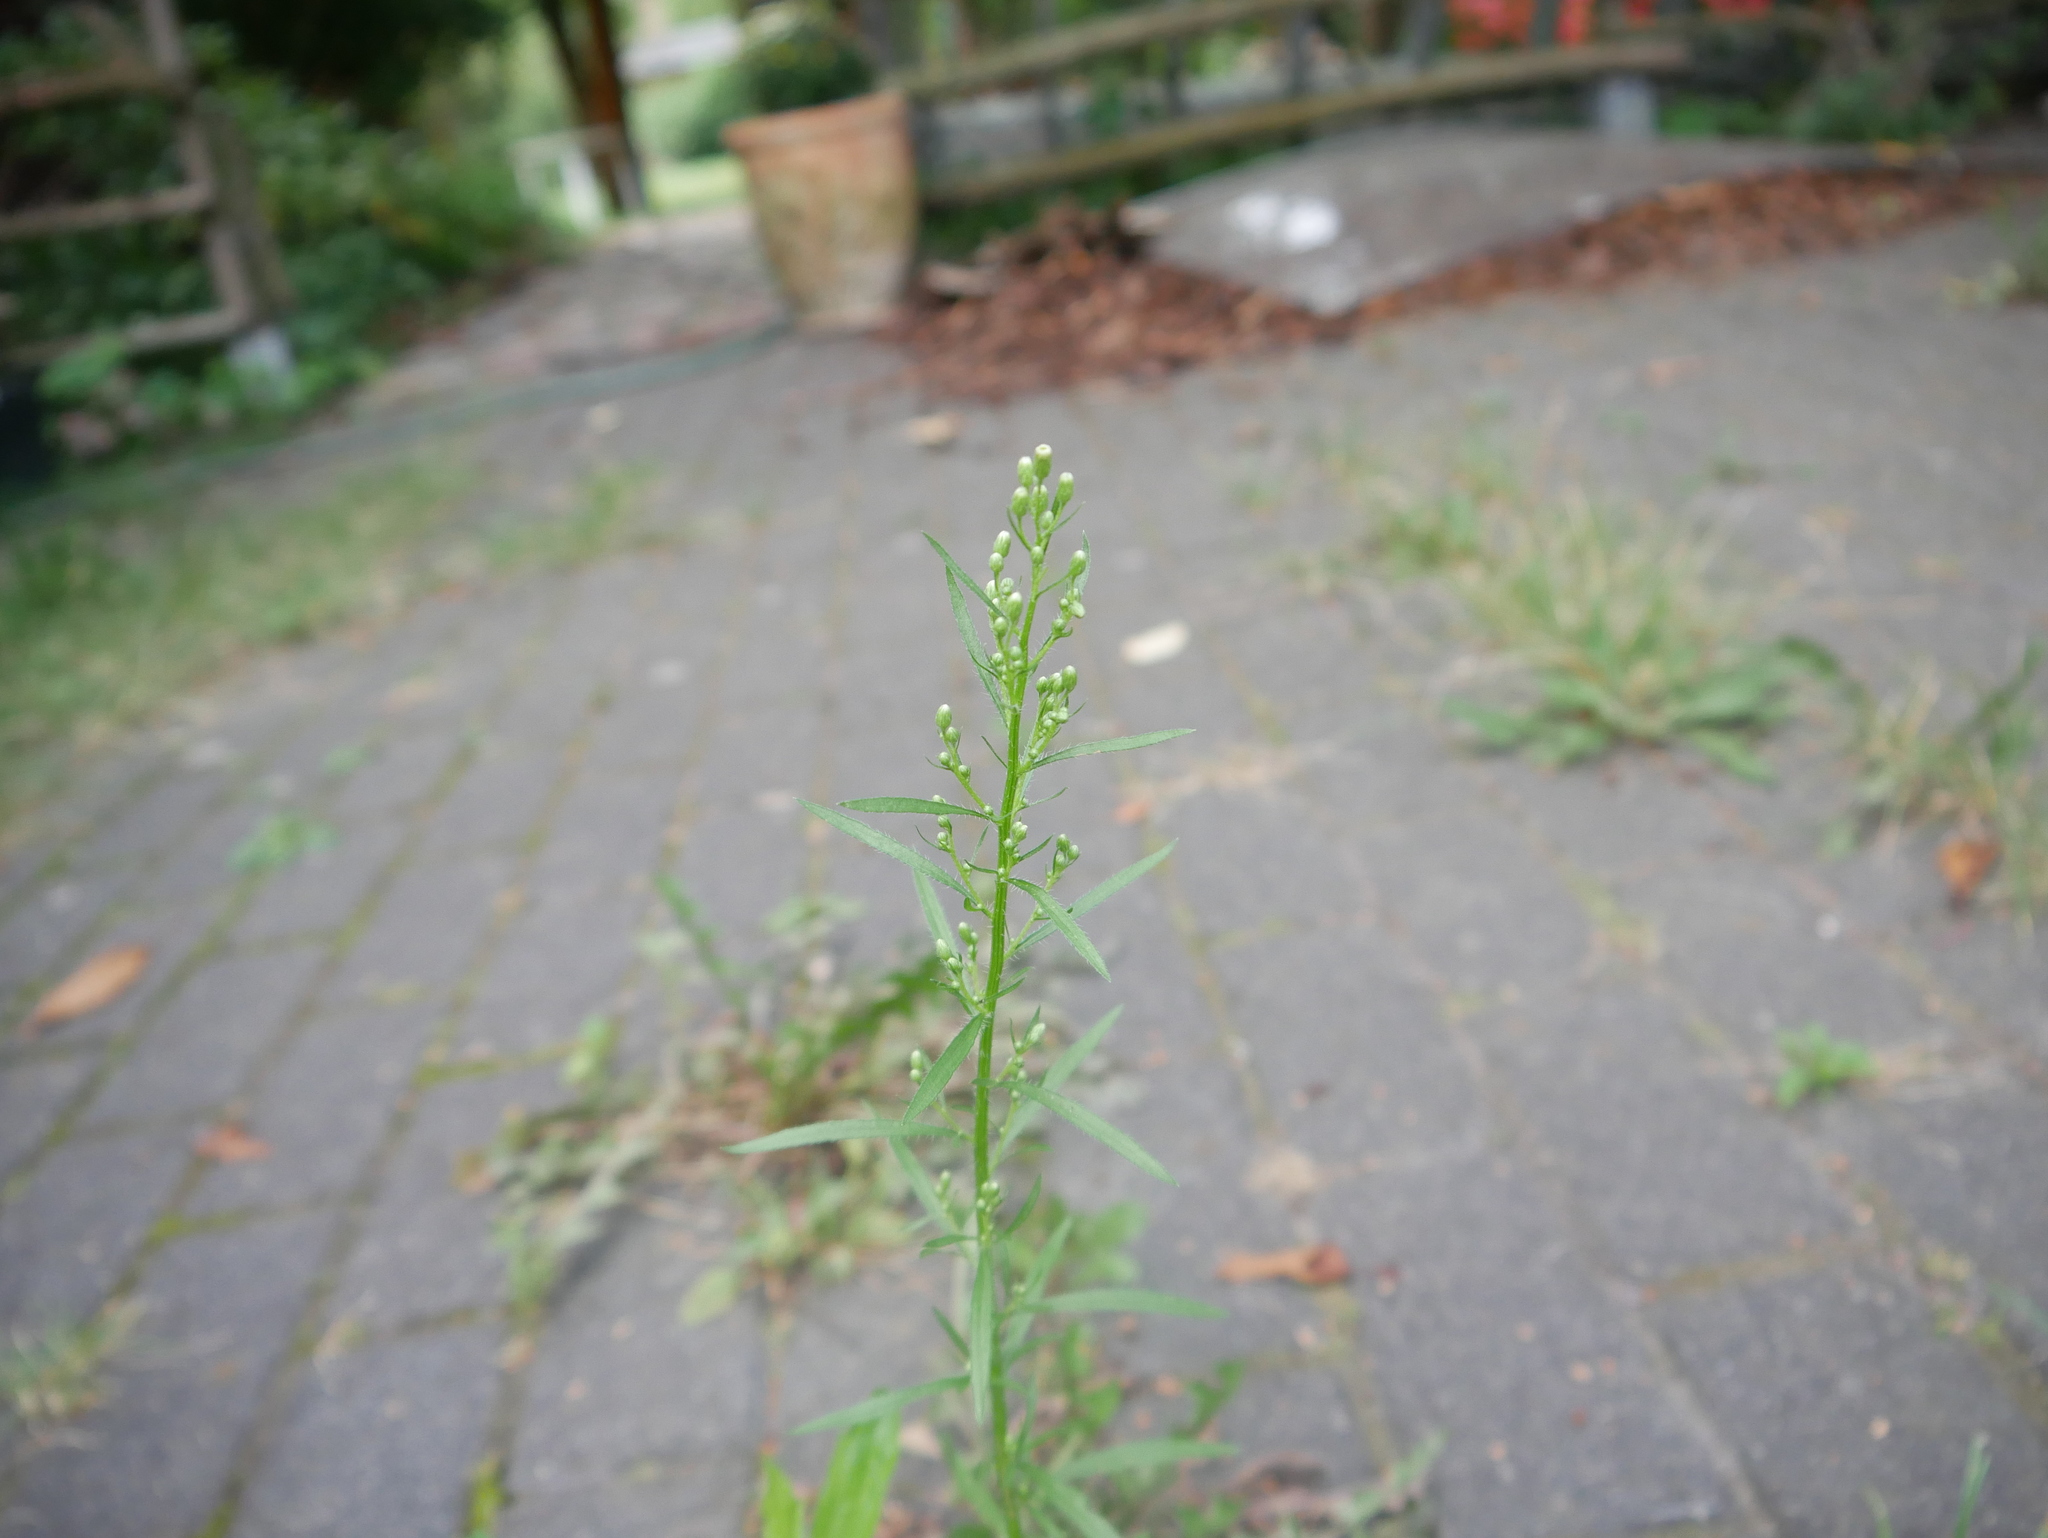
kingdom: Plantae
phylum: Tracheophyta
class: Magnoliopsida
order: Asterales
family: Asteraceae
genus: Erigeron
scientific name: Erigeron canadensis
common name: Canadian fleabane
